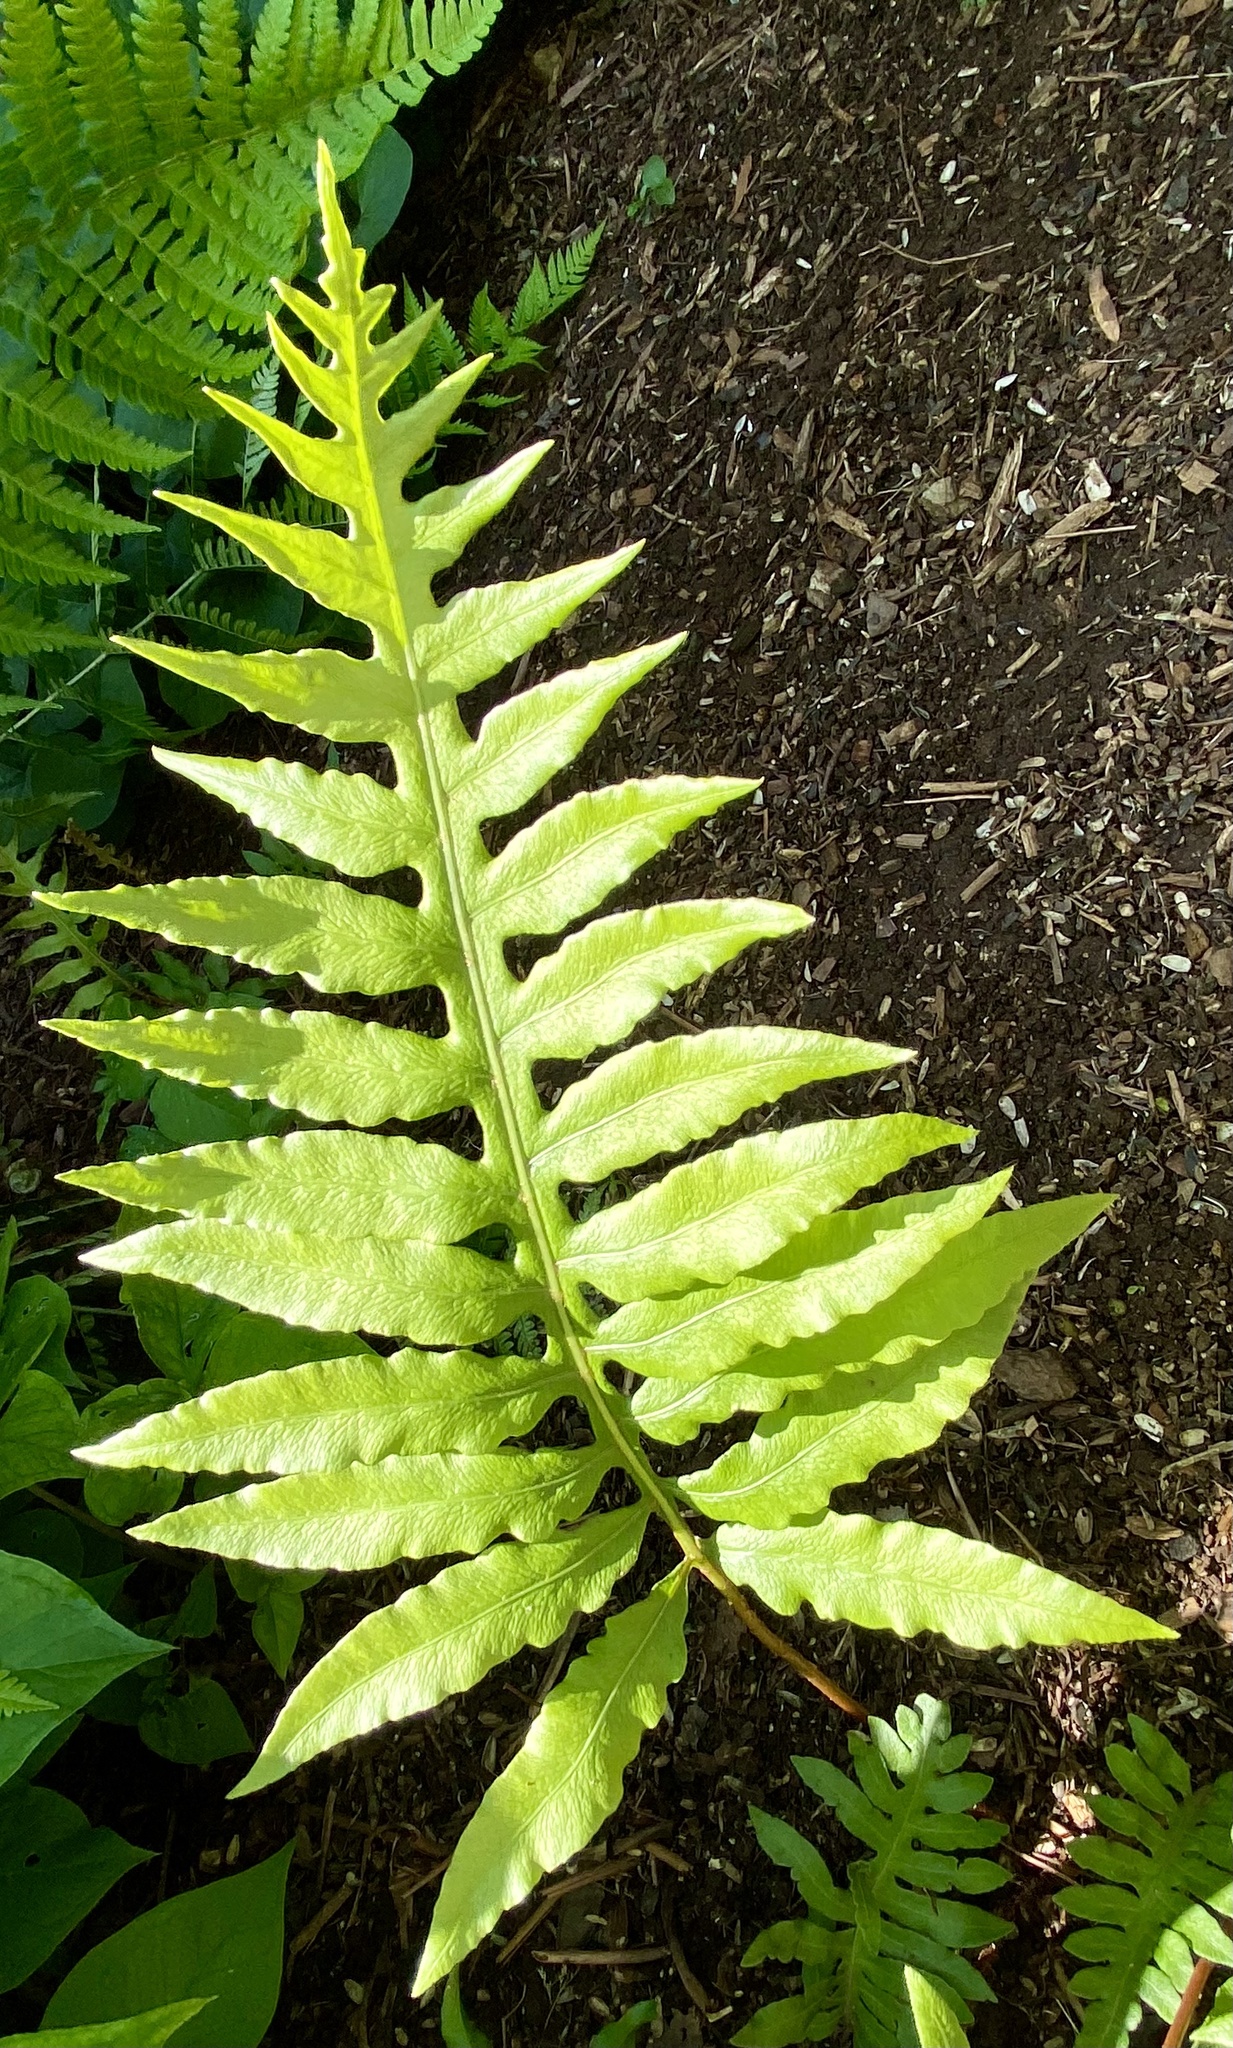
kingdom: Plantae
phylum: Tracheophyta
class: Polypodiopsida
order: Polypodiales
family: Blechnaceae
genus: Lorinseria
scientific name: Lorinseria areolata
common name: Dwarf chain fern
